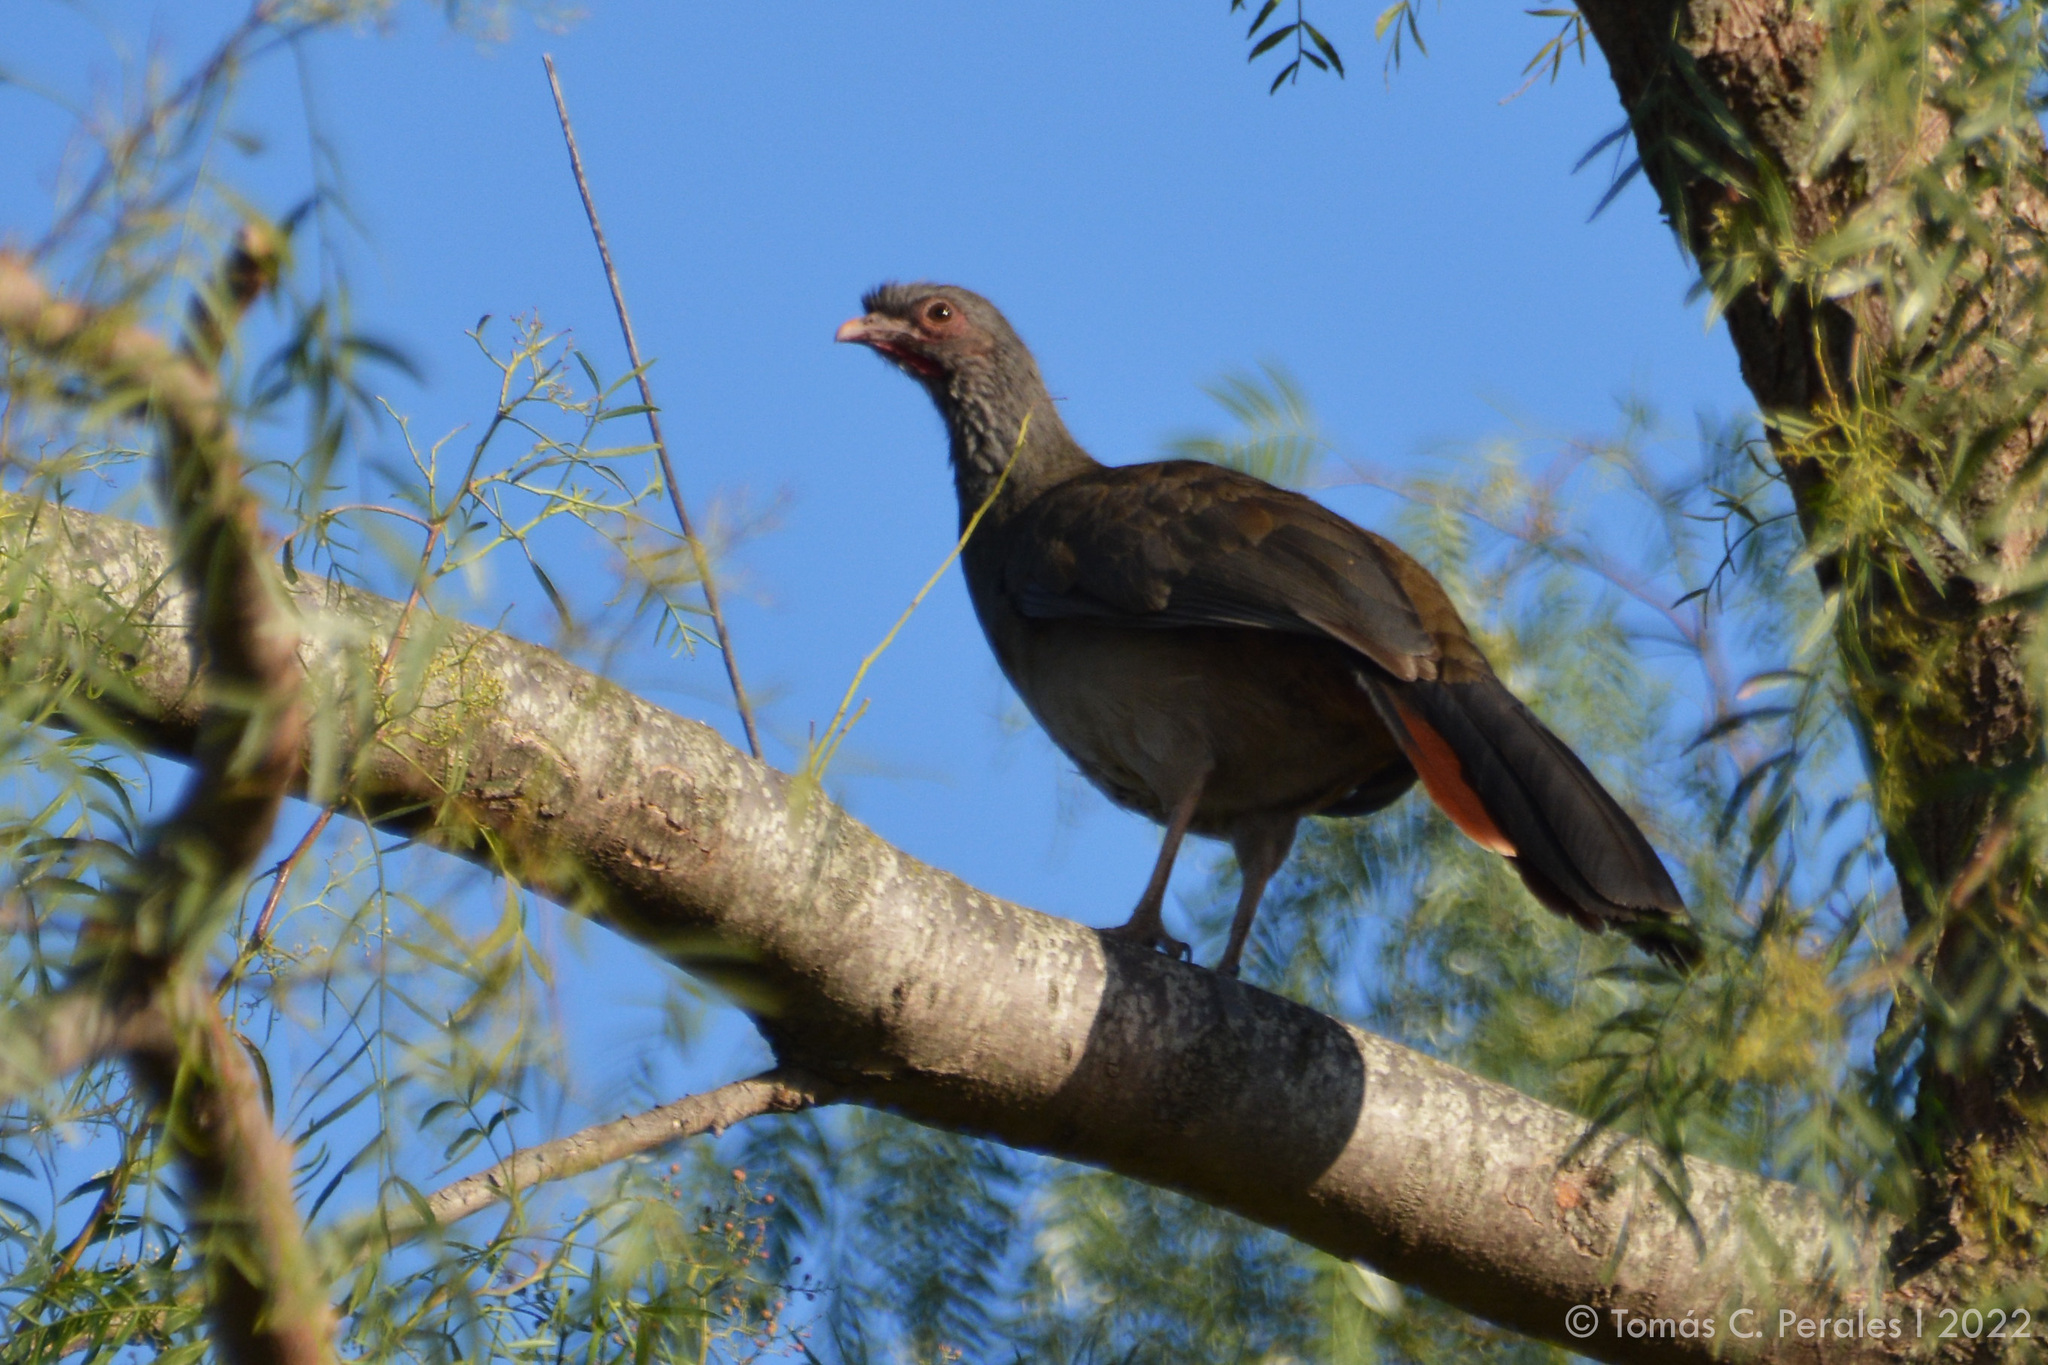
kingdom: Animalia
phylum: Chordata
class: Aves
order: Galliformes
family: Cracidae
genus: Ortalis
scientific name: Ortalis canicollis
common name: Chaco chachalaca
